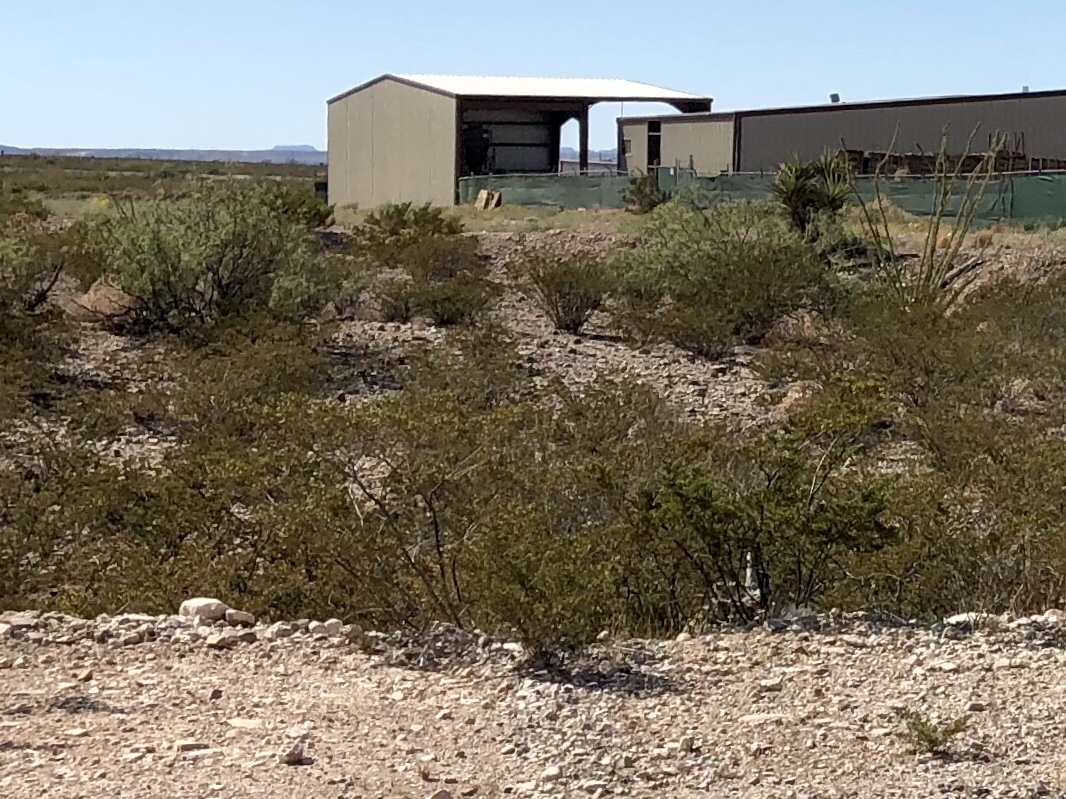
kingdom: Plantae
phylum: Tracheophyta
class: Magnoliopsida
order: Zygophyllales
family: Zygophyllaceae
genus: Larrea
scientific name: Larrea tridentata
